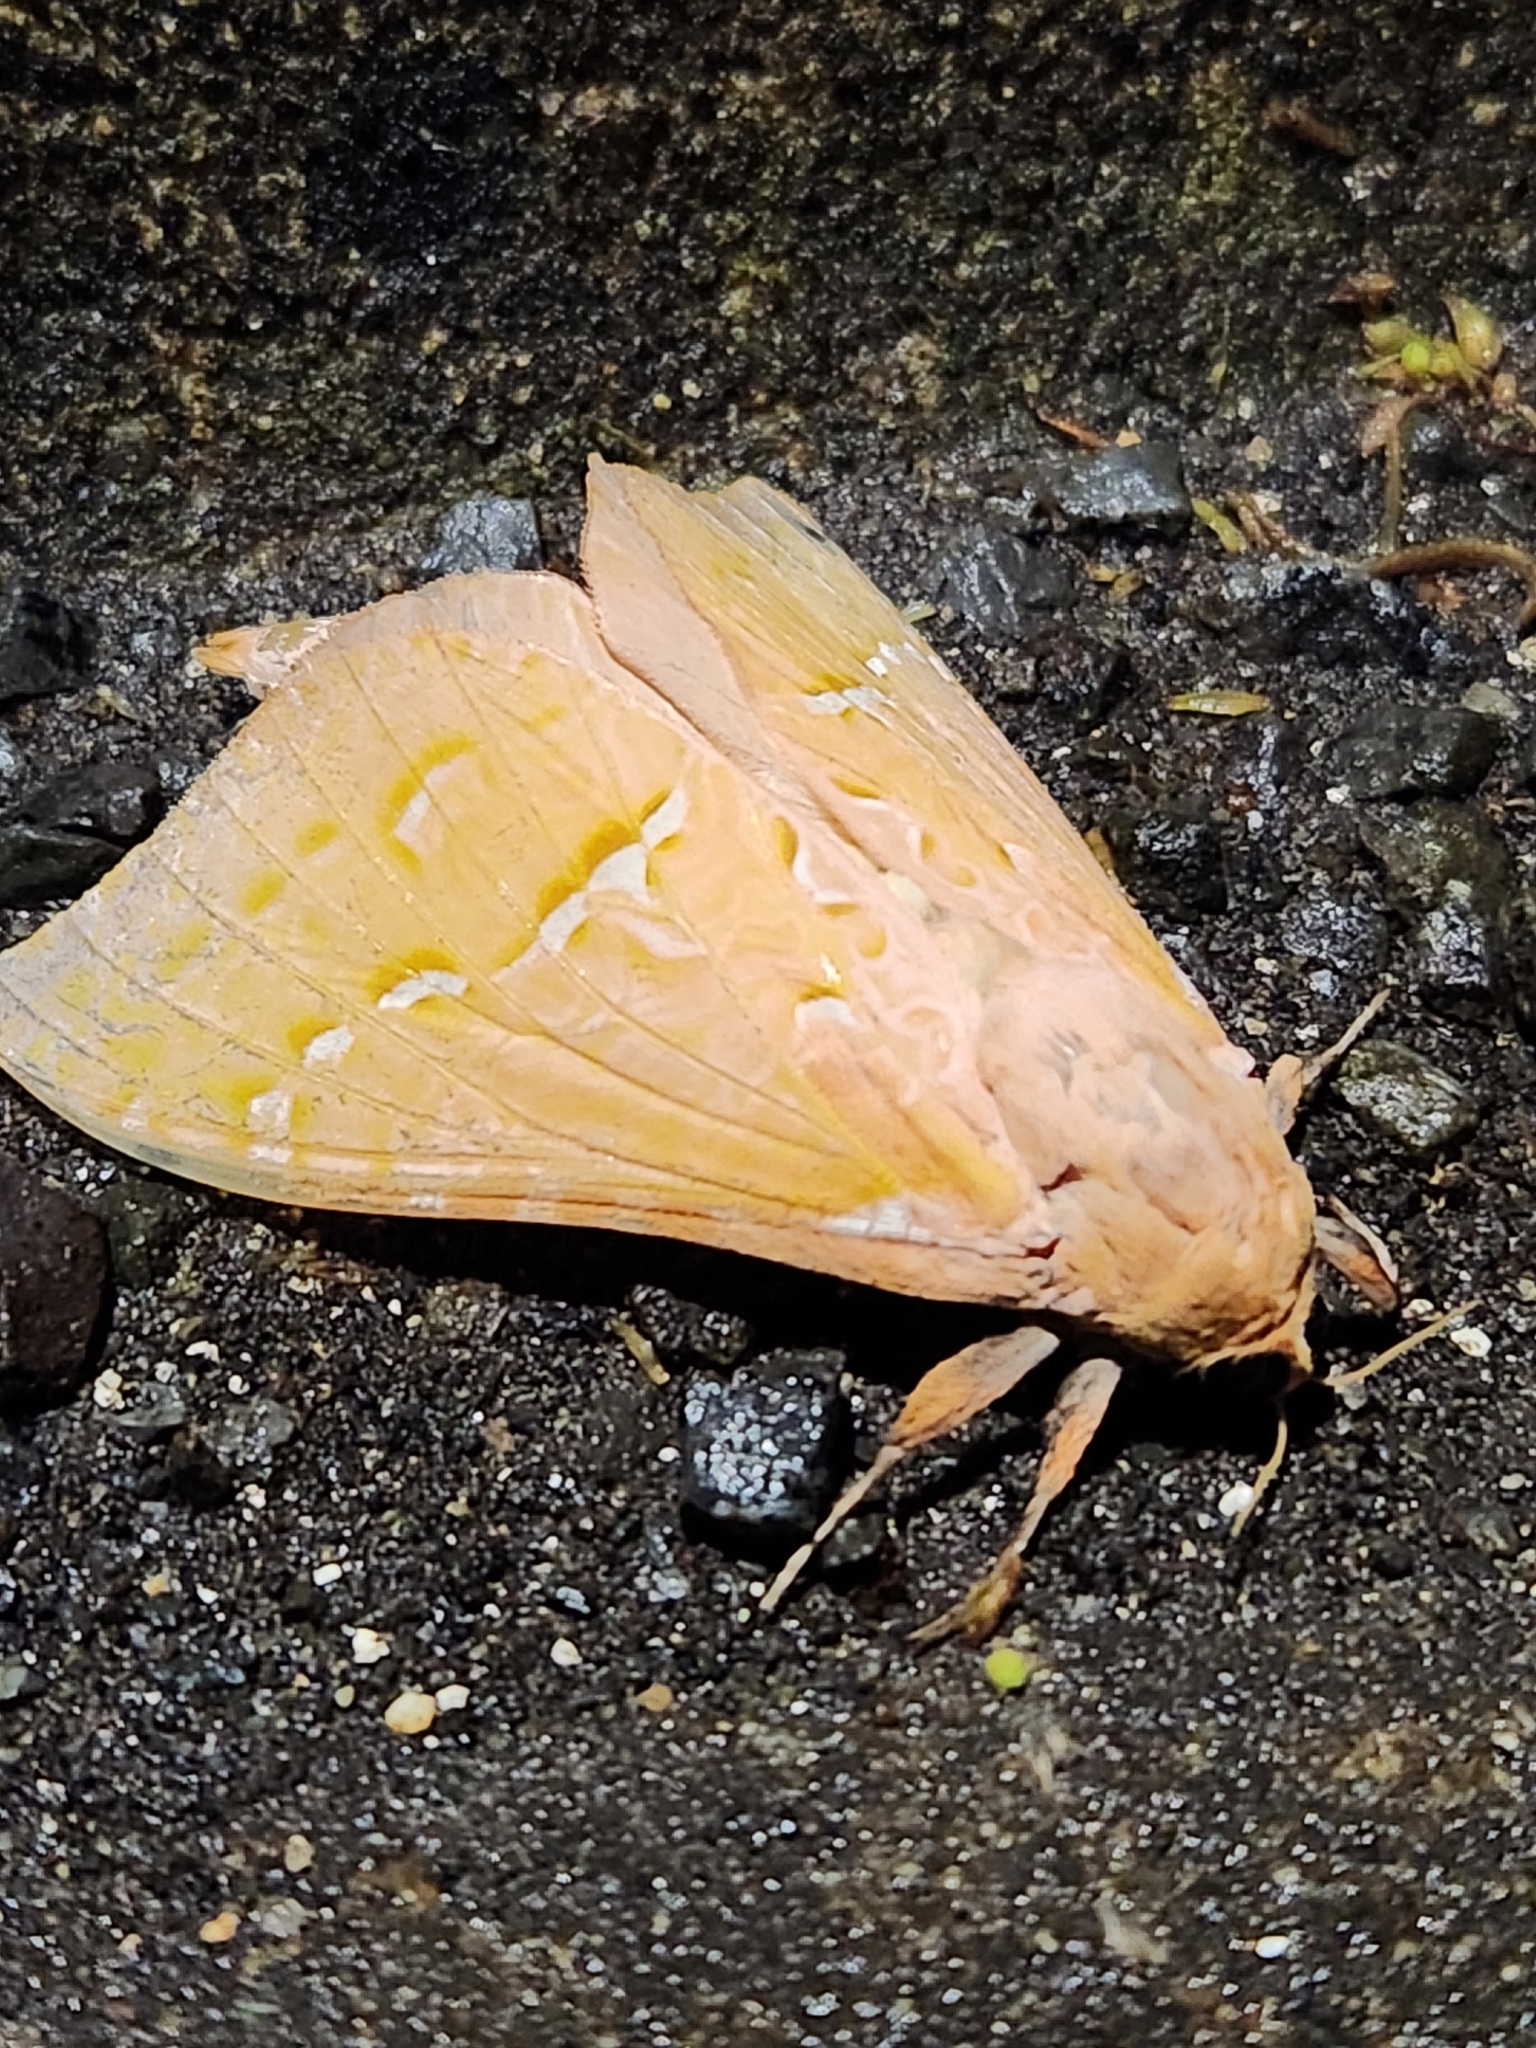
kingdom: Animalia
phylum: Arthropoda
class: Insecta
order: Lepidoptera
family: Hepialidae
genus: Aenetus
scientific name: Aenetus virescens
